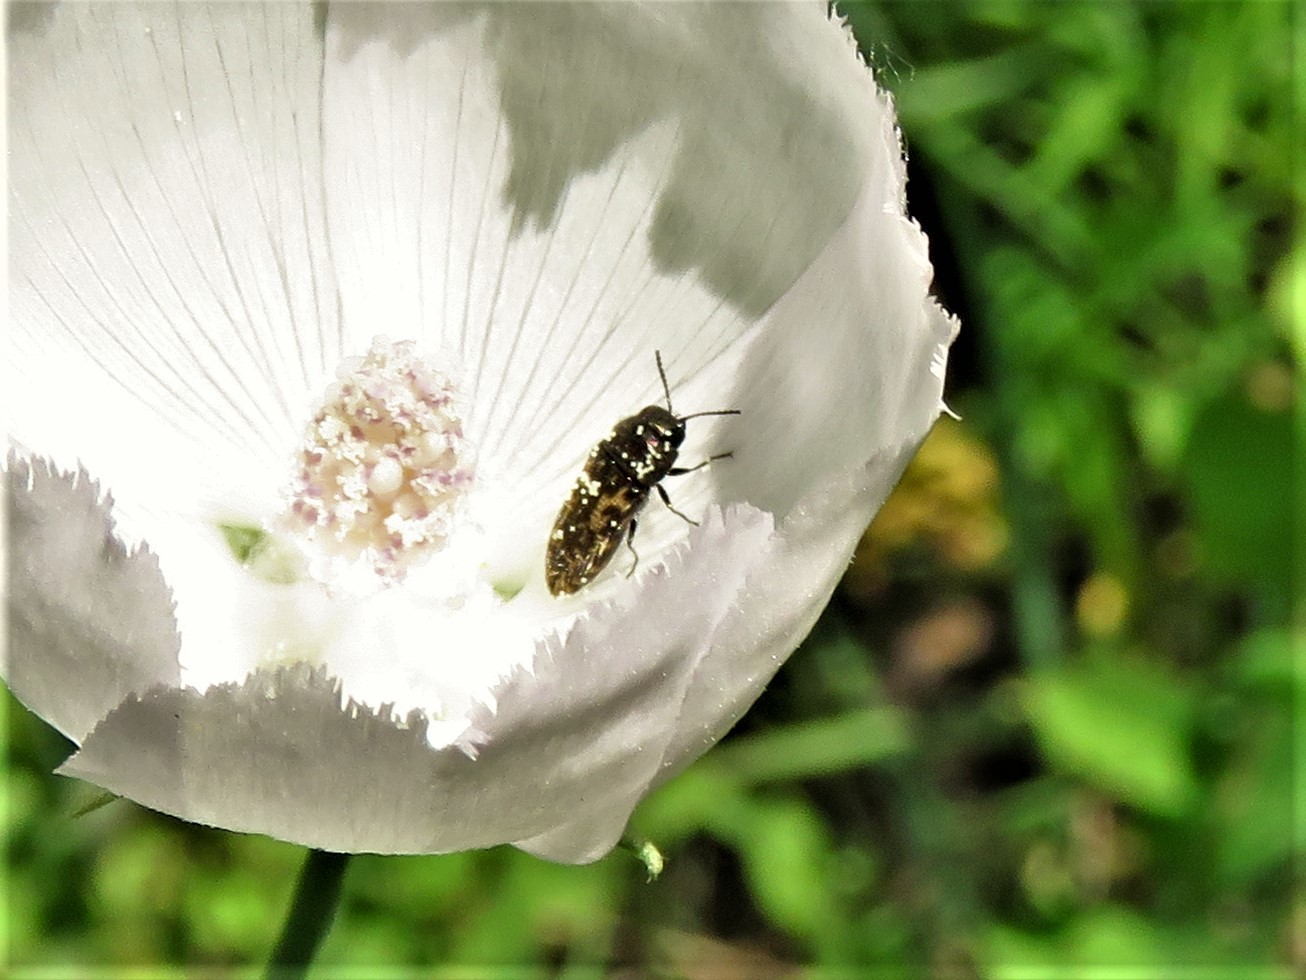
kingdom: Animalia
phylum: Arthropoda
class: Insecta
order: Coleoptera
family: Buprestidae
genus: Acmaeodera
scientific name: Acmaeodera neglecta
